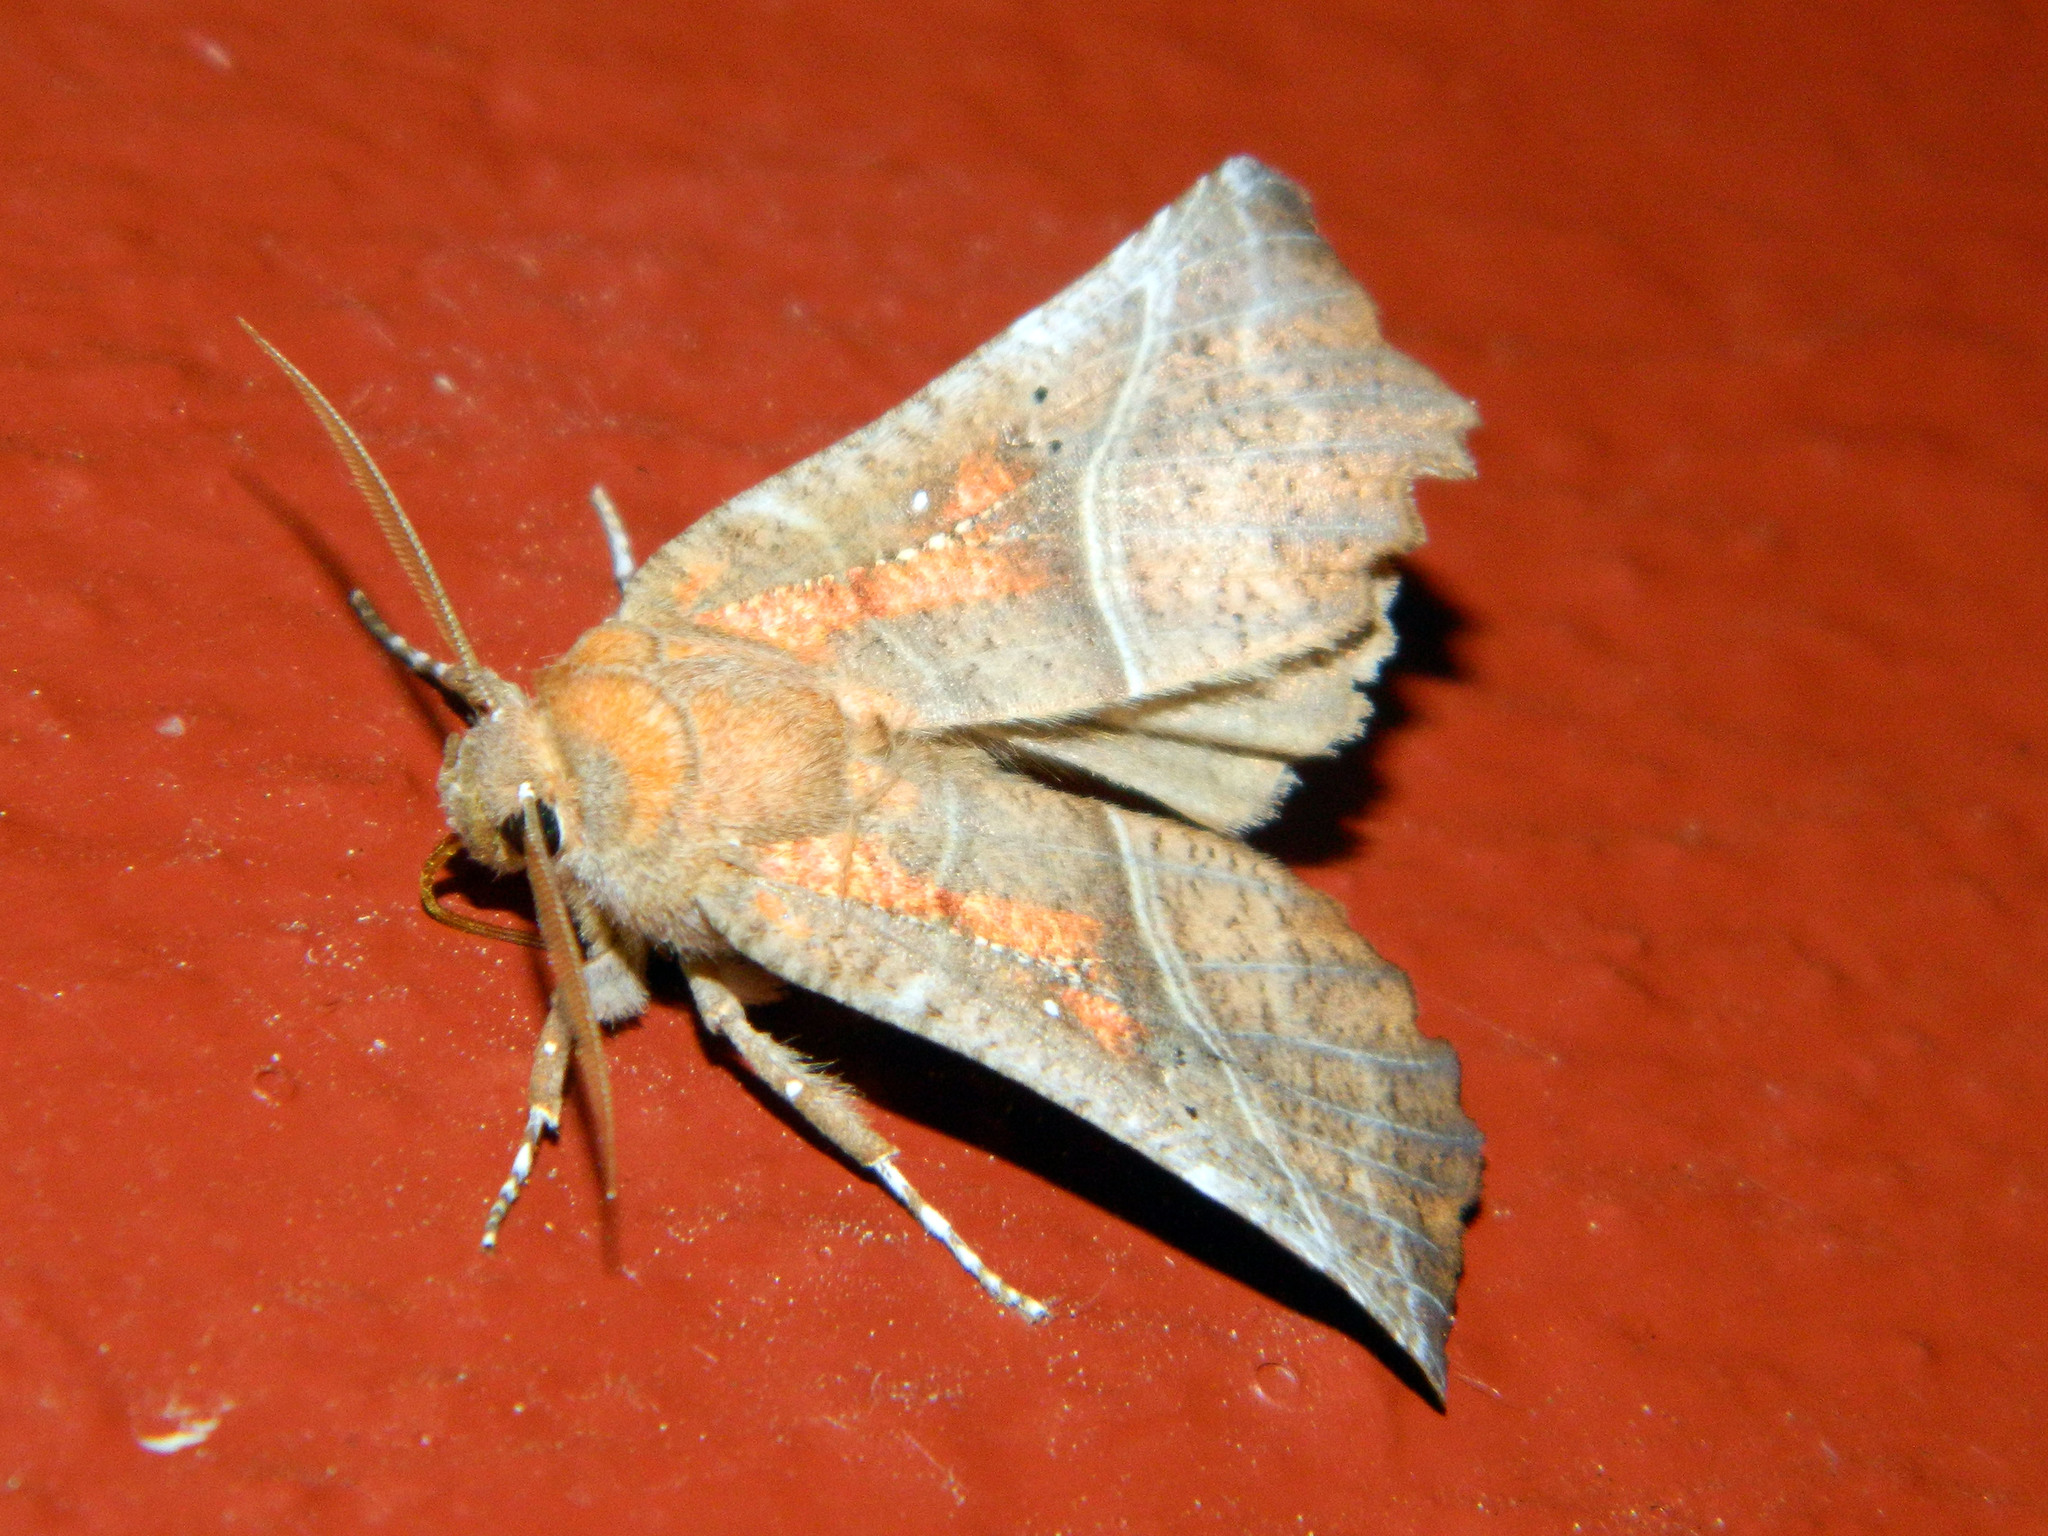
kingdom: Animalia
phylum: Arthropoda
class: Insecta
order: Lepidoptera
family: Erebidae
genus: Scoliopteryx
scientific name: Scoliopteryx libatrix
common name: Herald
